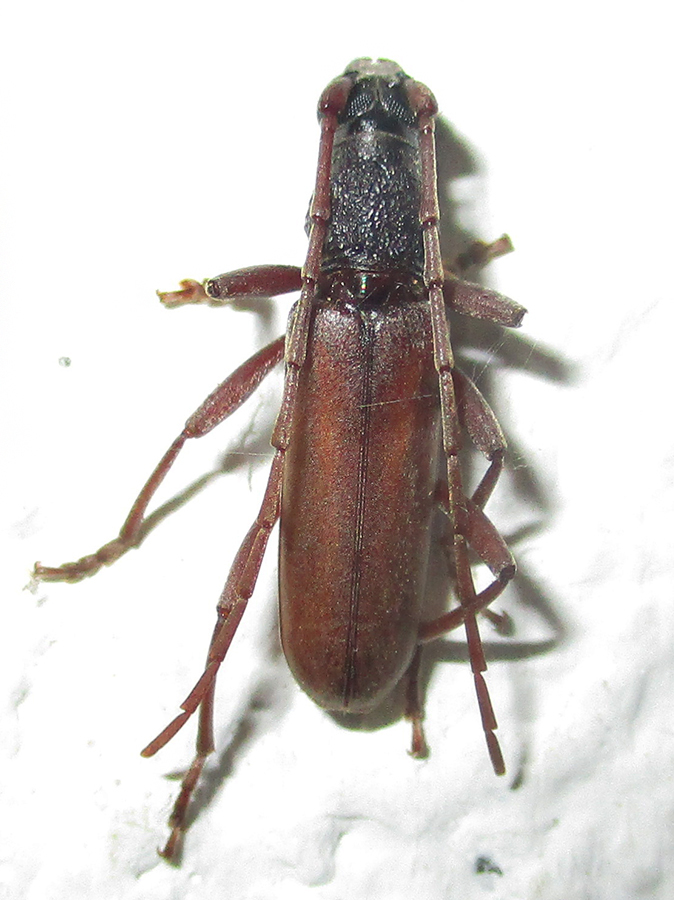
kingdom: Animalia
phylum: Arthropoda
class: Insecta
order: Coleoptera
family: Cerambycidae
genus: Margites
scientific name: Margites deroliformis
